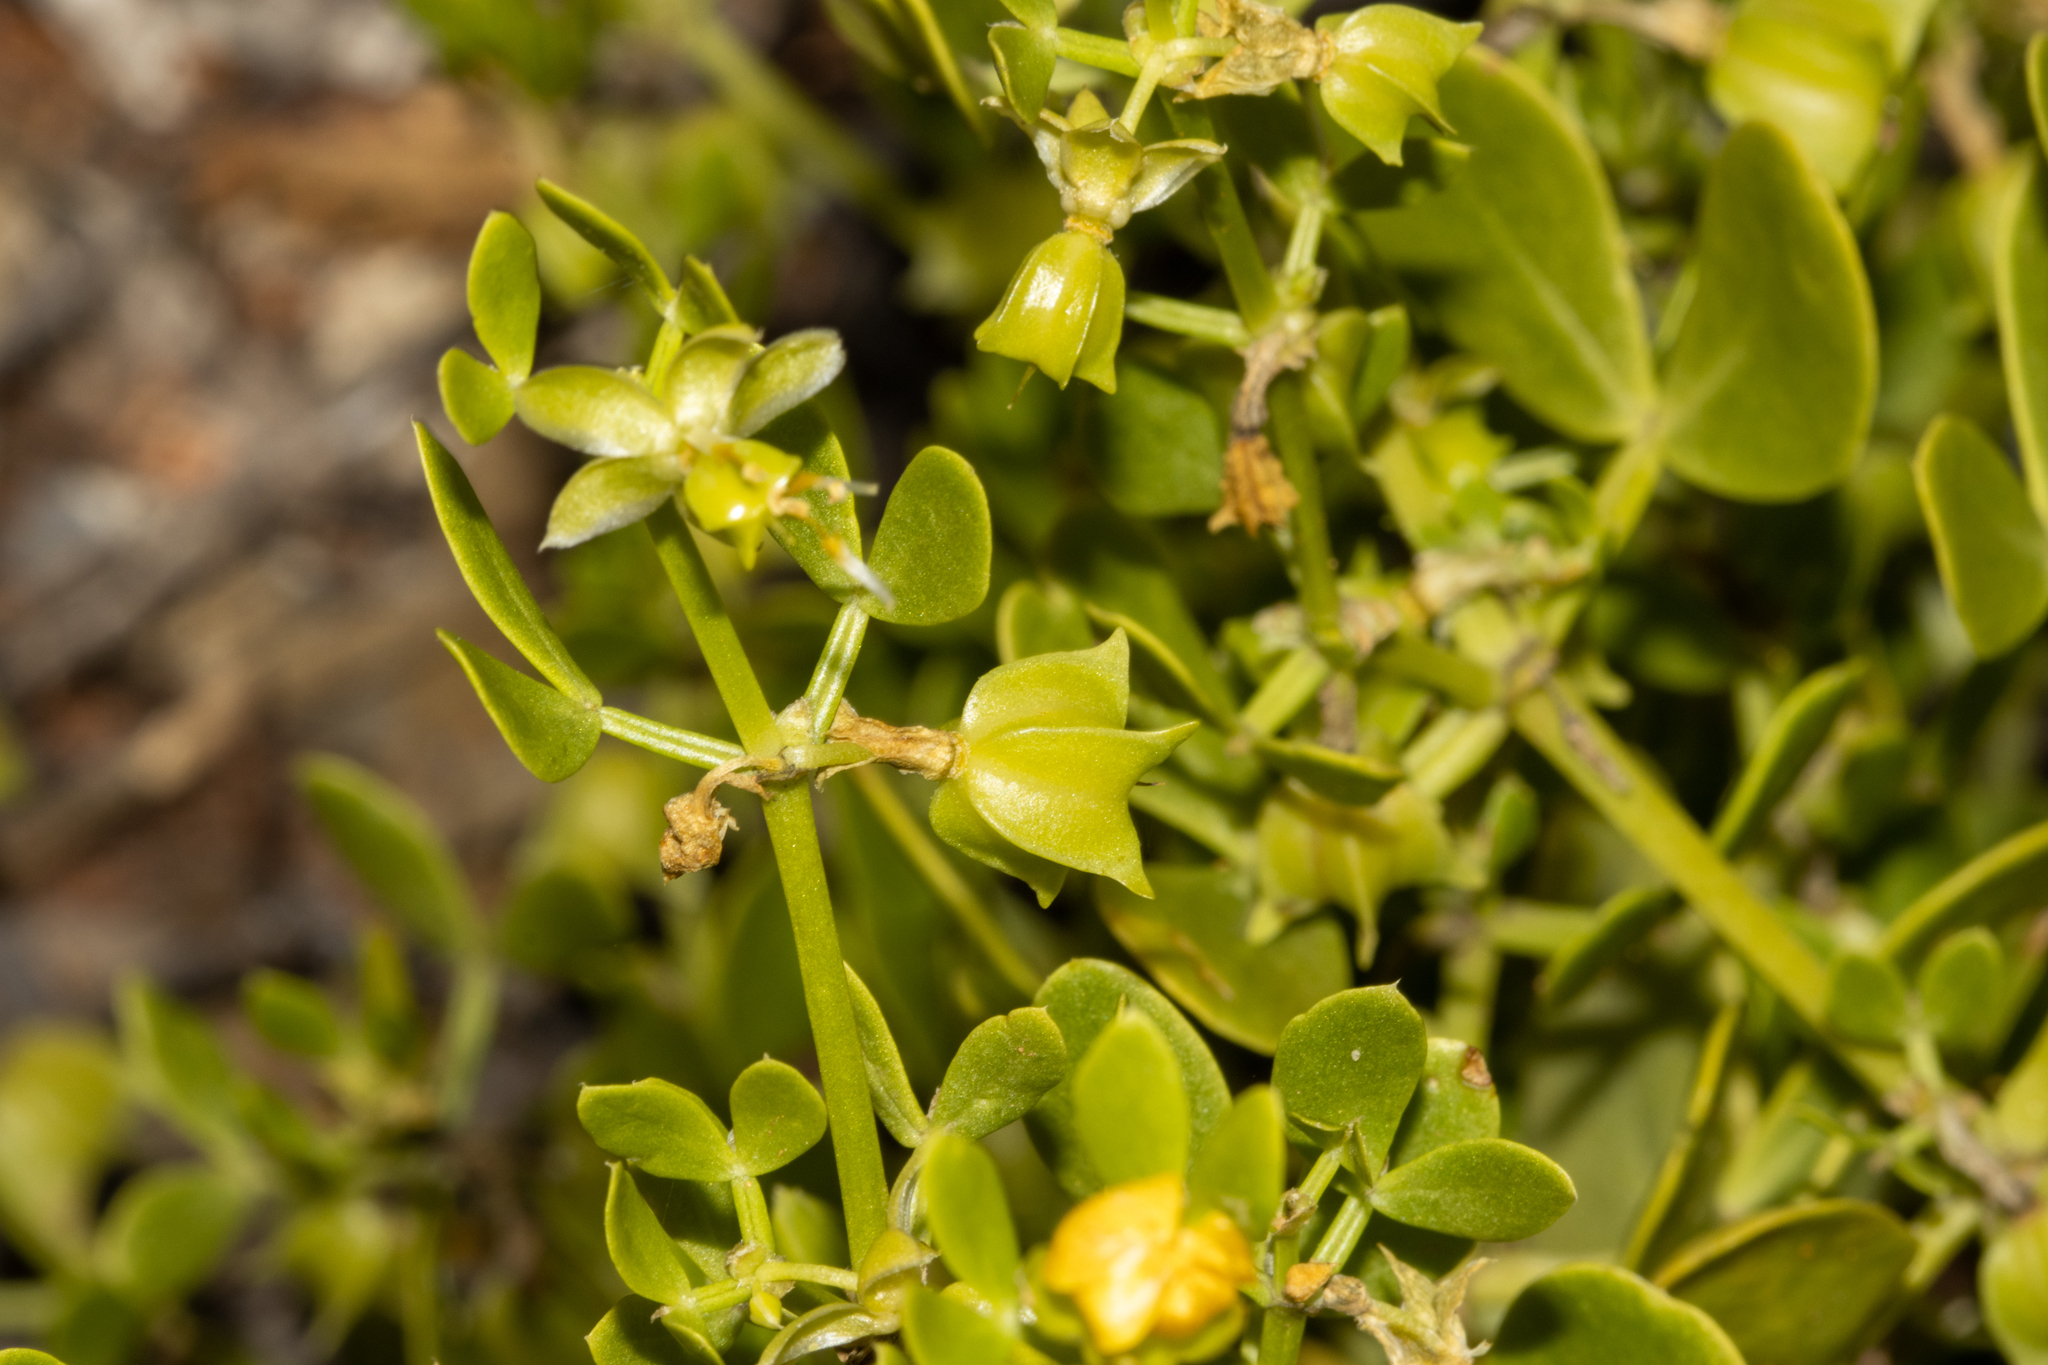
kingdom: Plantae
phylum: Tracheophyta
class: Magnoliopsida
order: Zygophyllales
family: Zygophyllaceae
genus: Roepera
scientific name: Roepera apiculata
